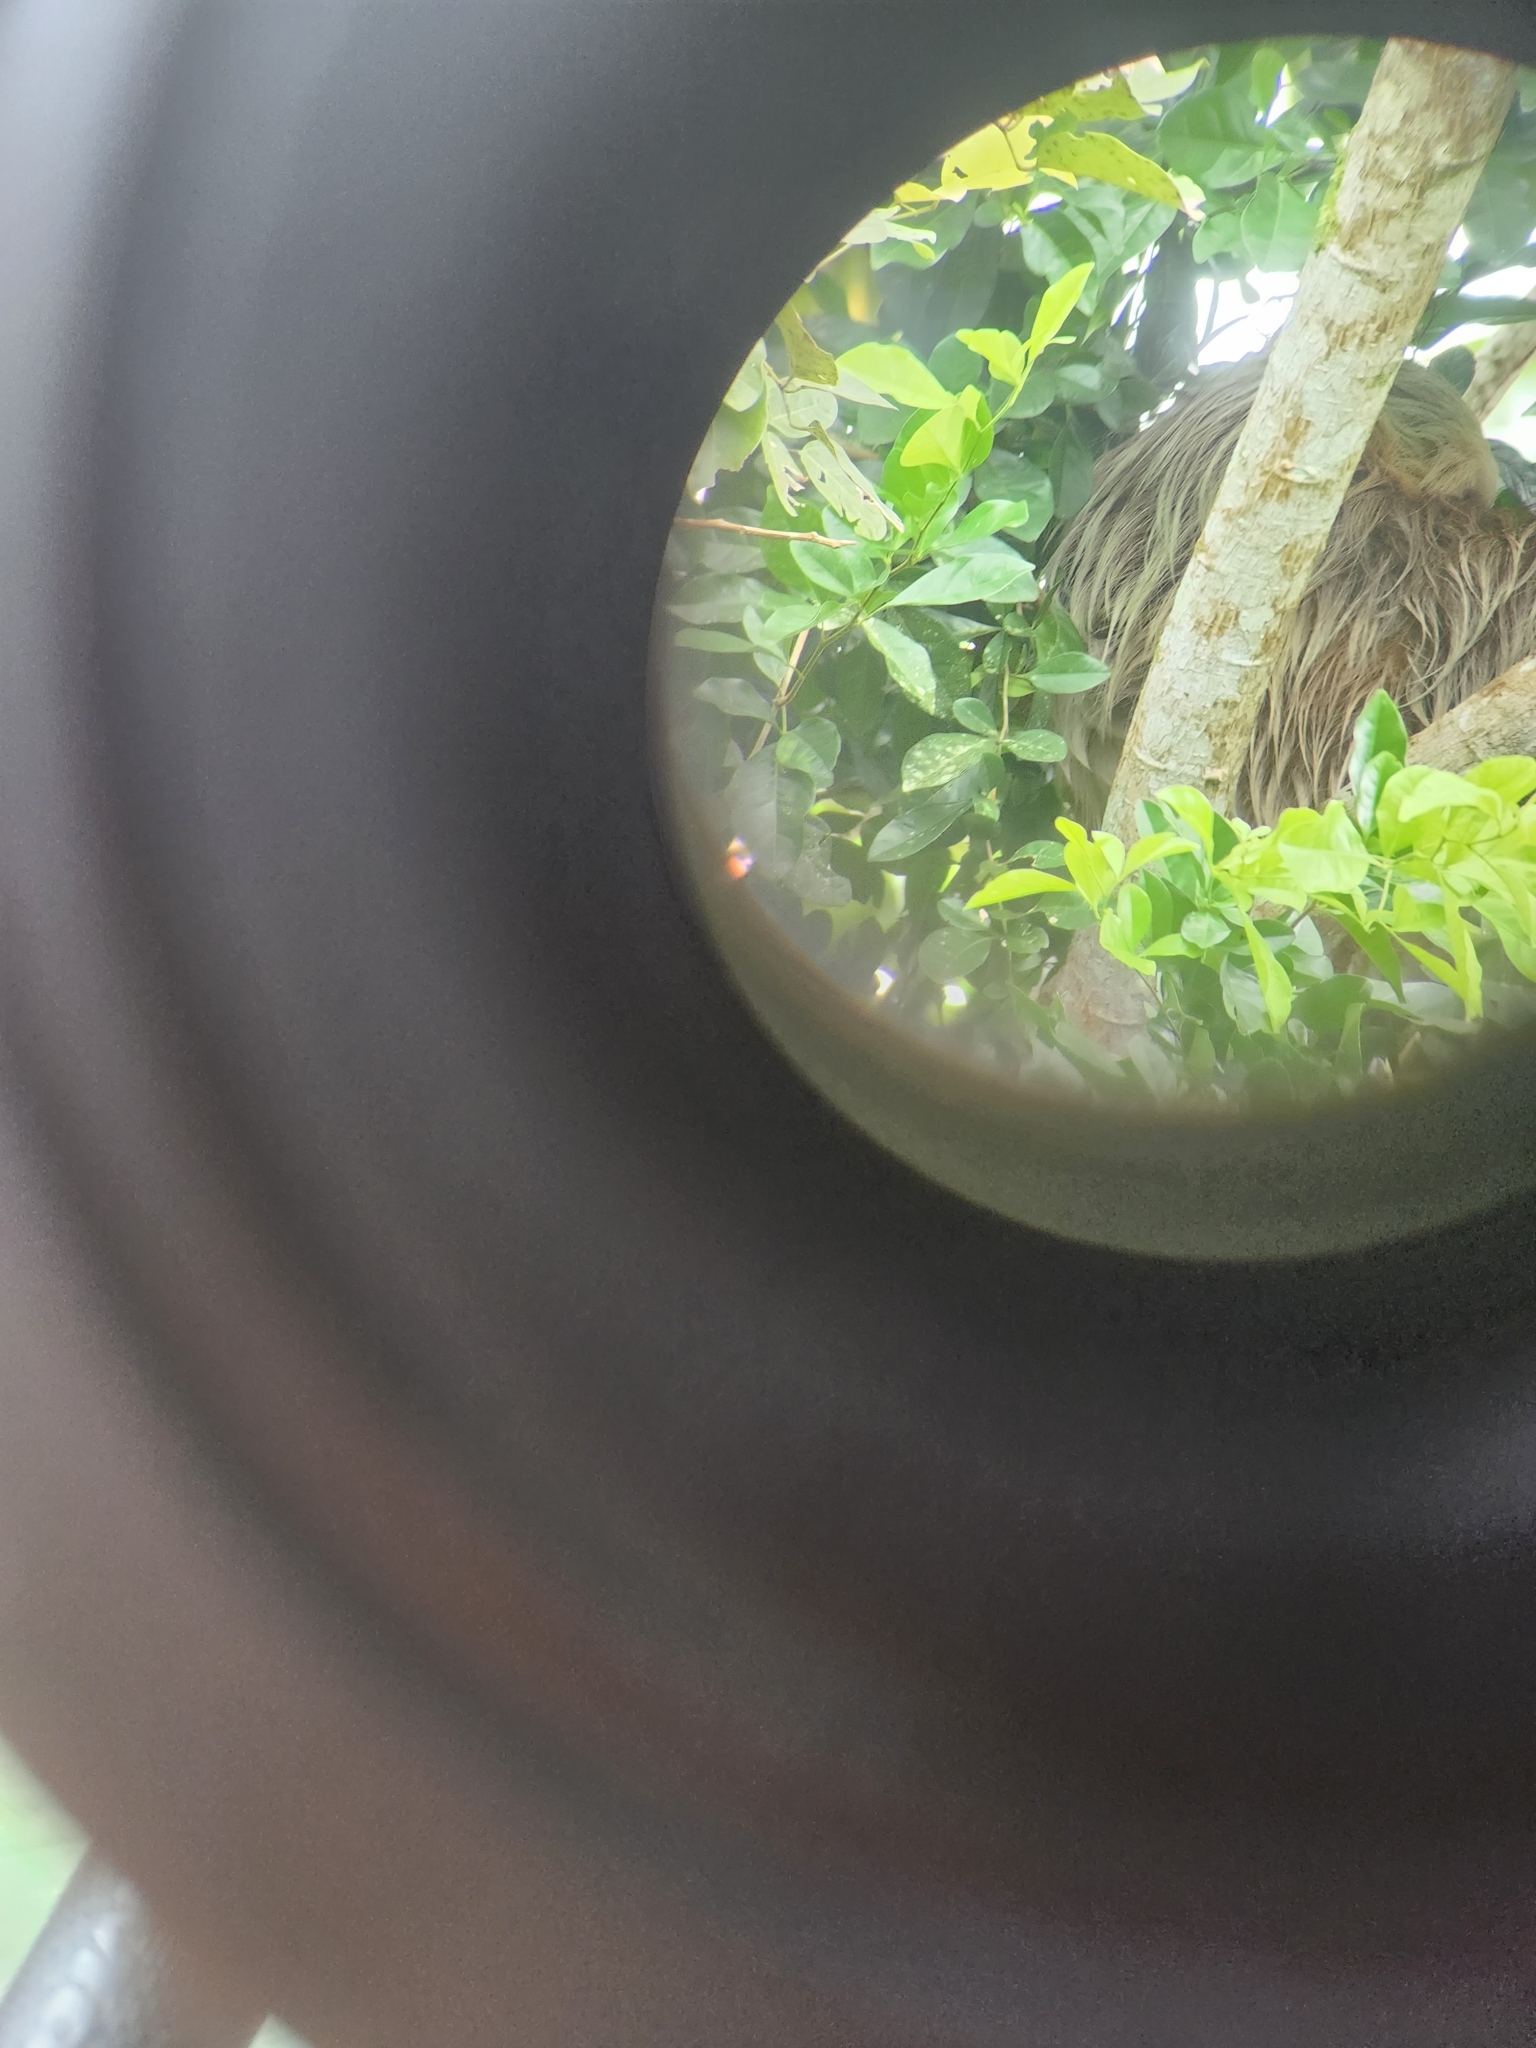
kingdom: Animalia
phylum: Chordata
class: Mammalia
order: Pilosa
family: Megalonychidae
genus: Choloepus
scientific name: Choloepus hoffmanni
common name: Hoffmann's two-toed sloth
